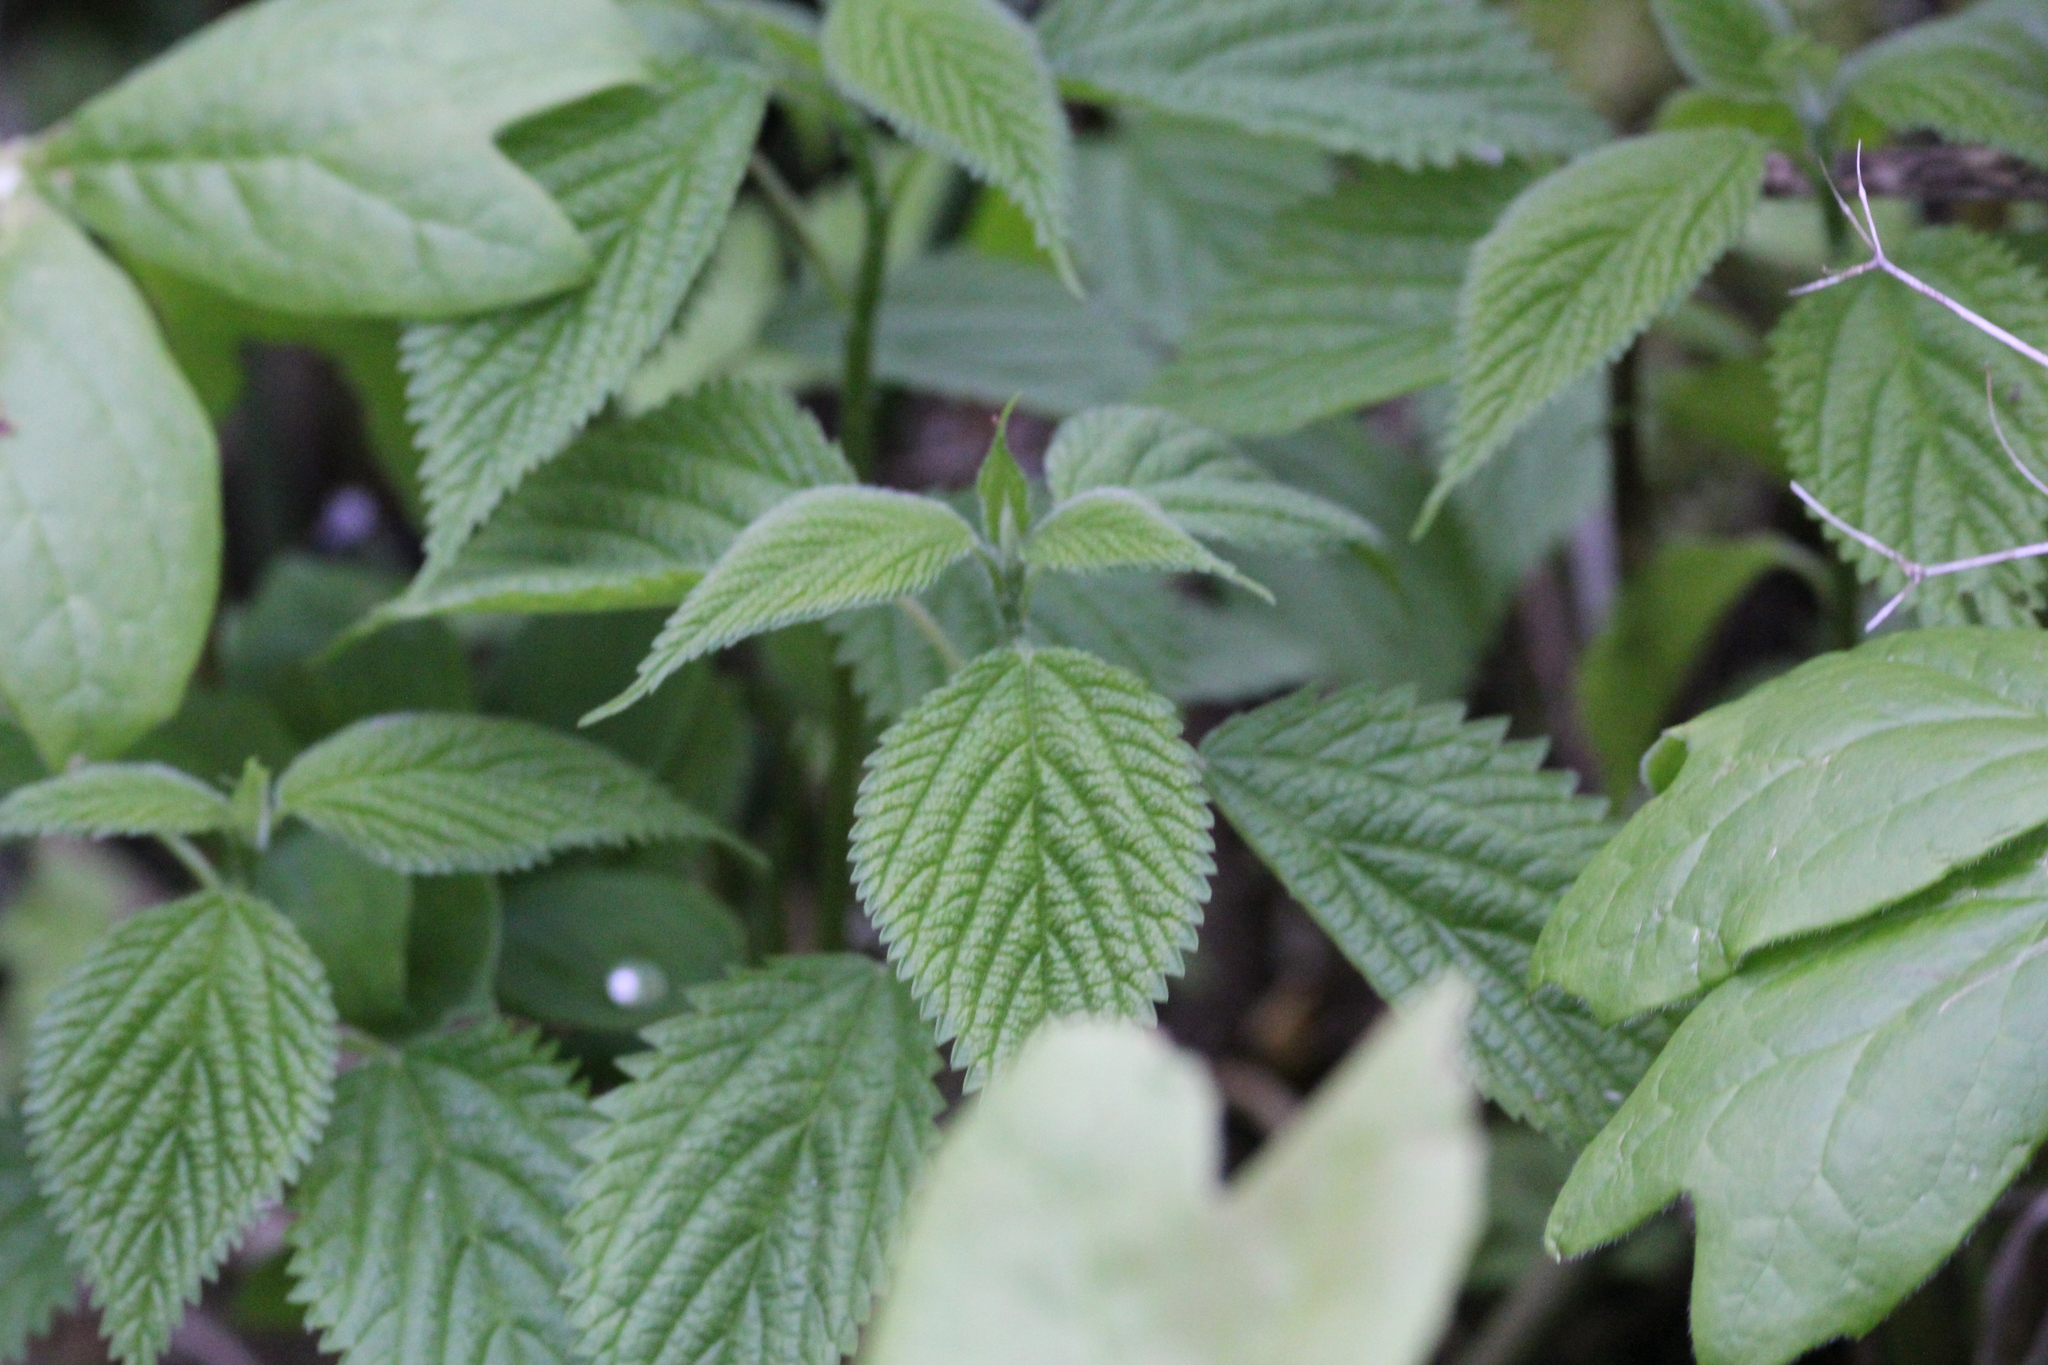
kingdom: Plantae
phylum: Tracheophyta
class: Magnoliopsida
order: Rosales
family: Urticaceae
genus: Laportea
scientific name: Laportea canadensis
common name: Canada nettle
